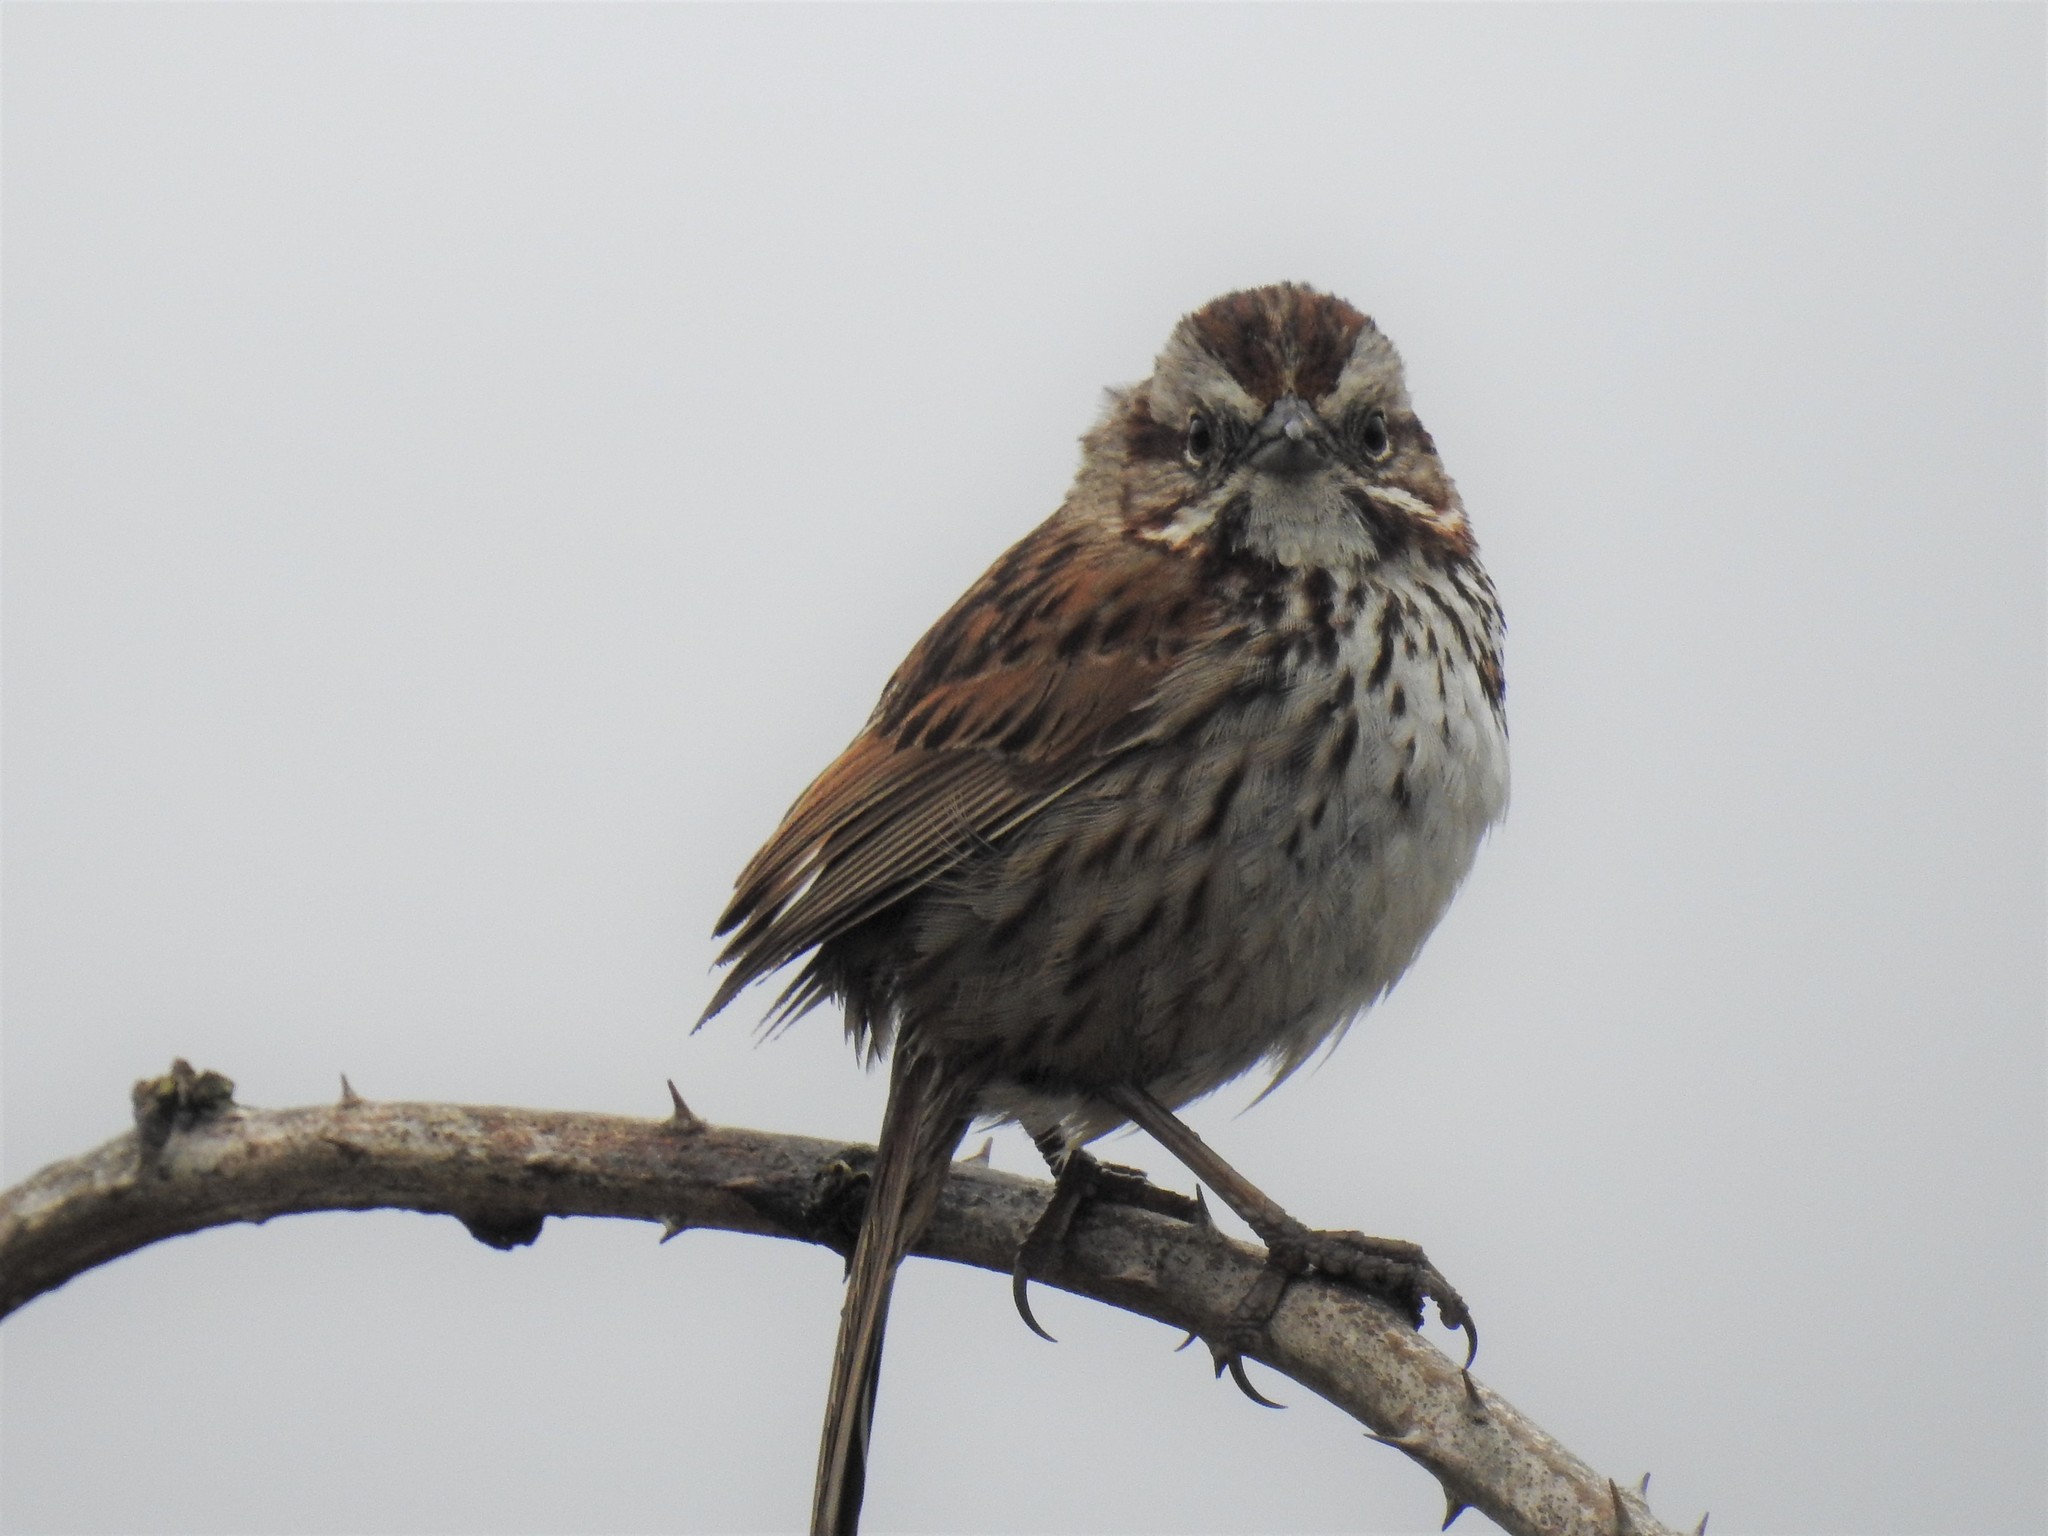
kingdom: Animalia
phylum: Chordata
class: Aves
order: Passeriformes
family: Passerellidae
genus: Melospiza
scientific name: Melospiza melodia
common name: Song sparrow
